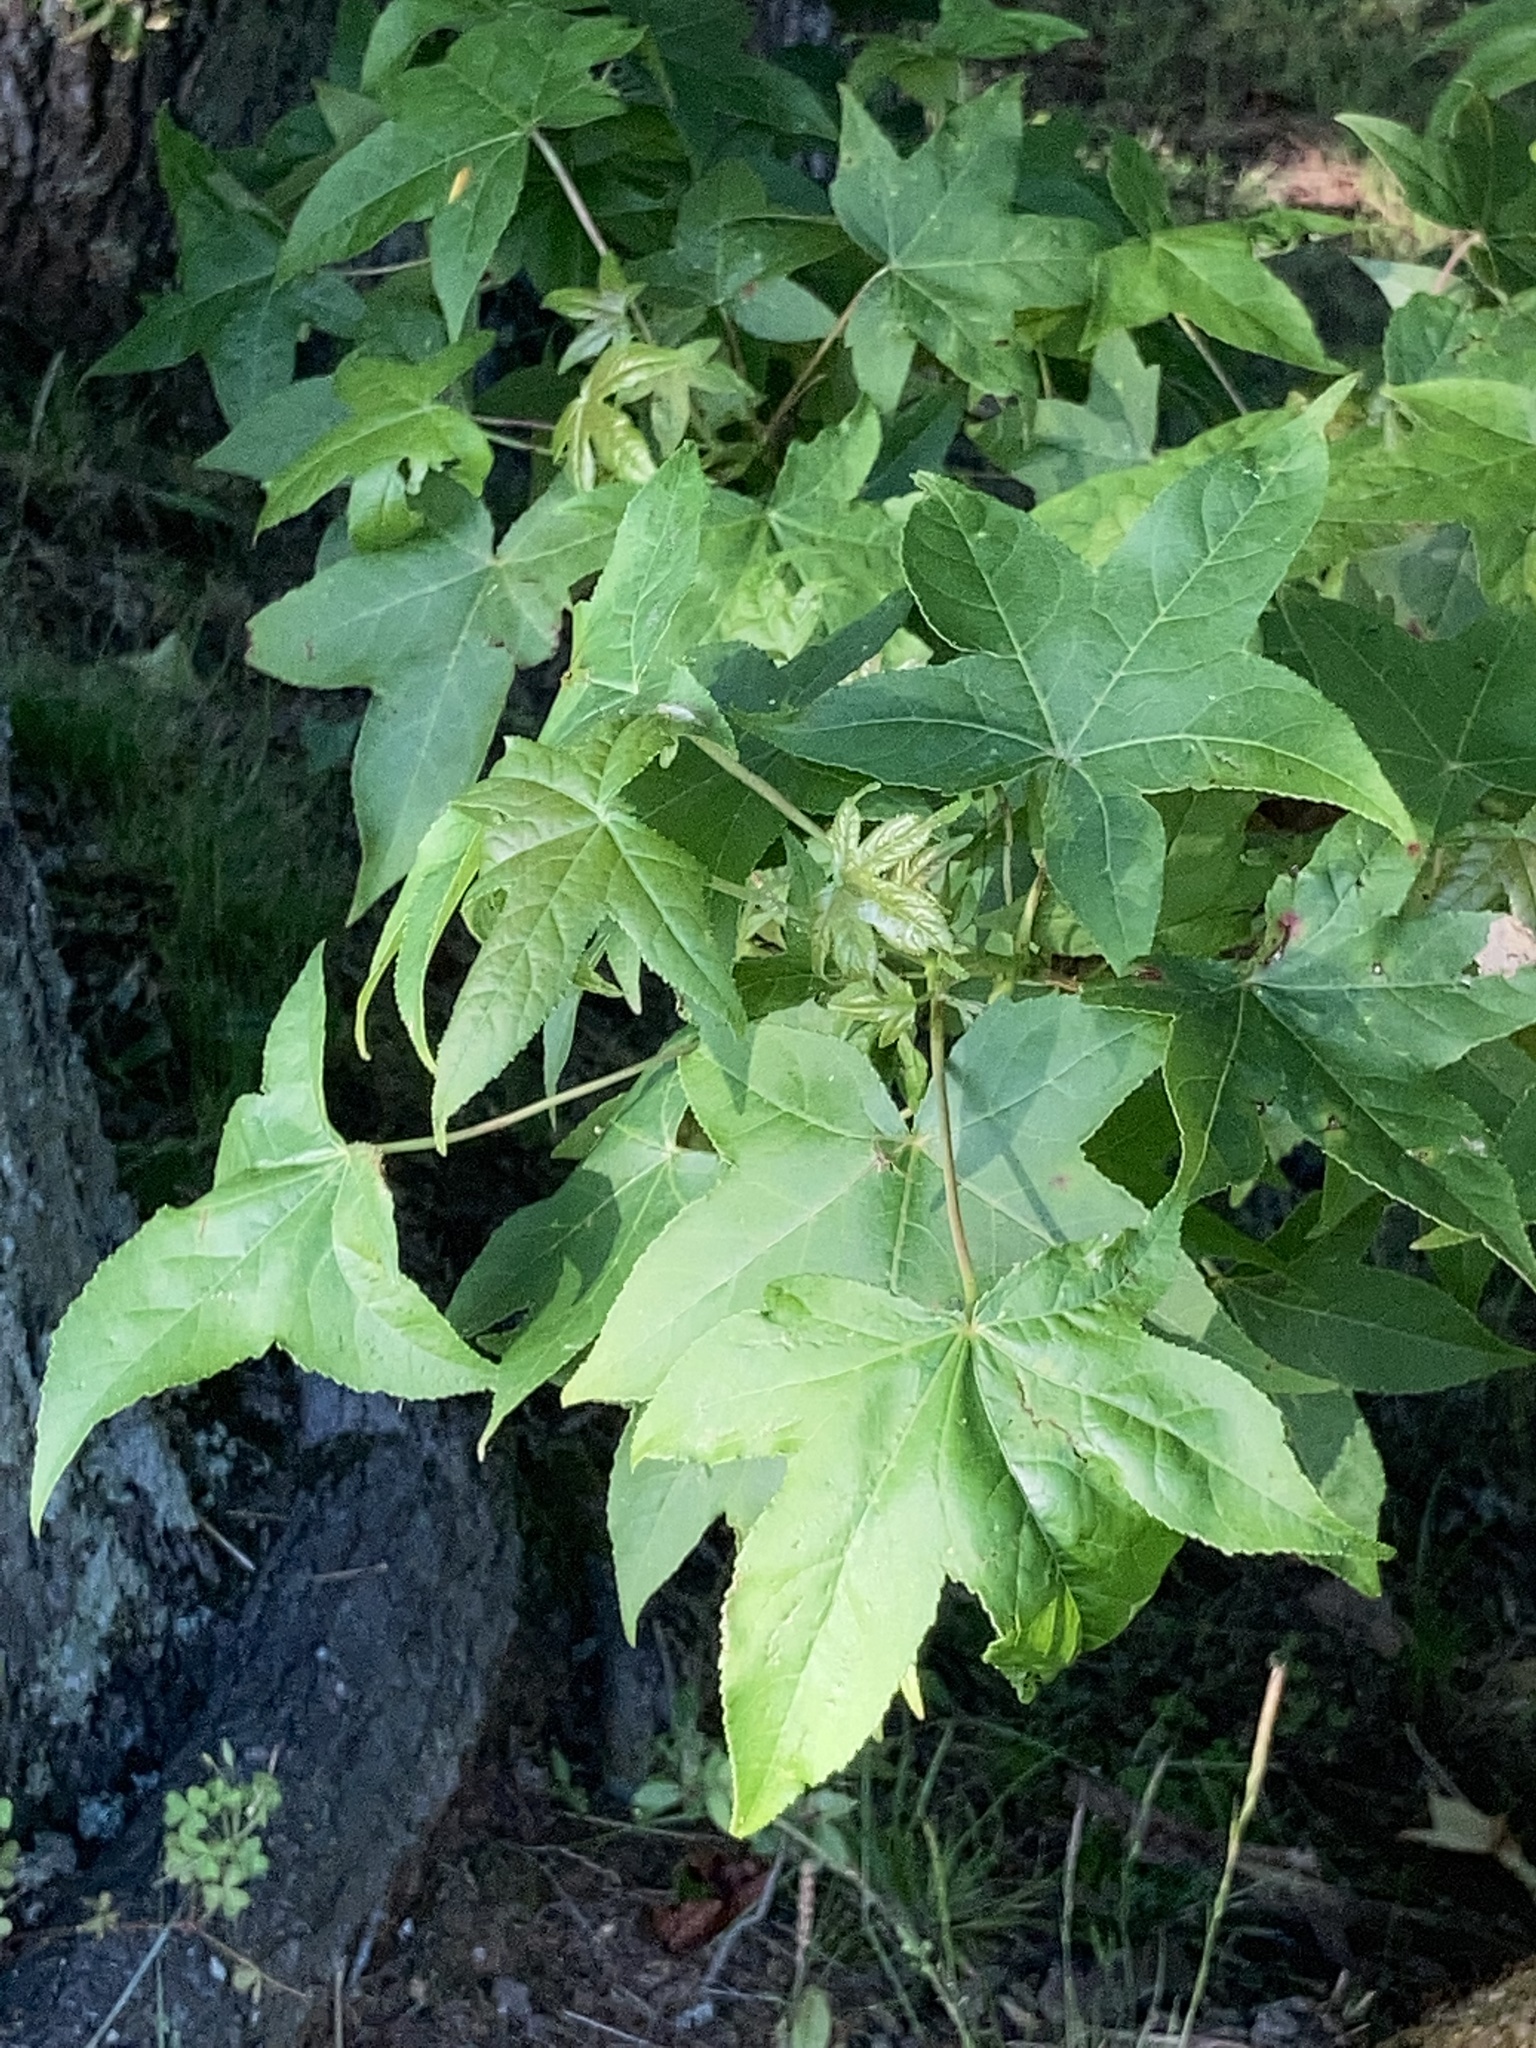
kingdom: Plantae
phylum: Tracheophyta
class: Magnoliopsida
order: Saxifragales
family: Altingiaceae
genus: Liquidambar
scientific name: Liquidambar styraciflua
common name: Sweet gum
